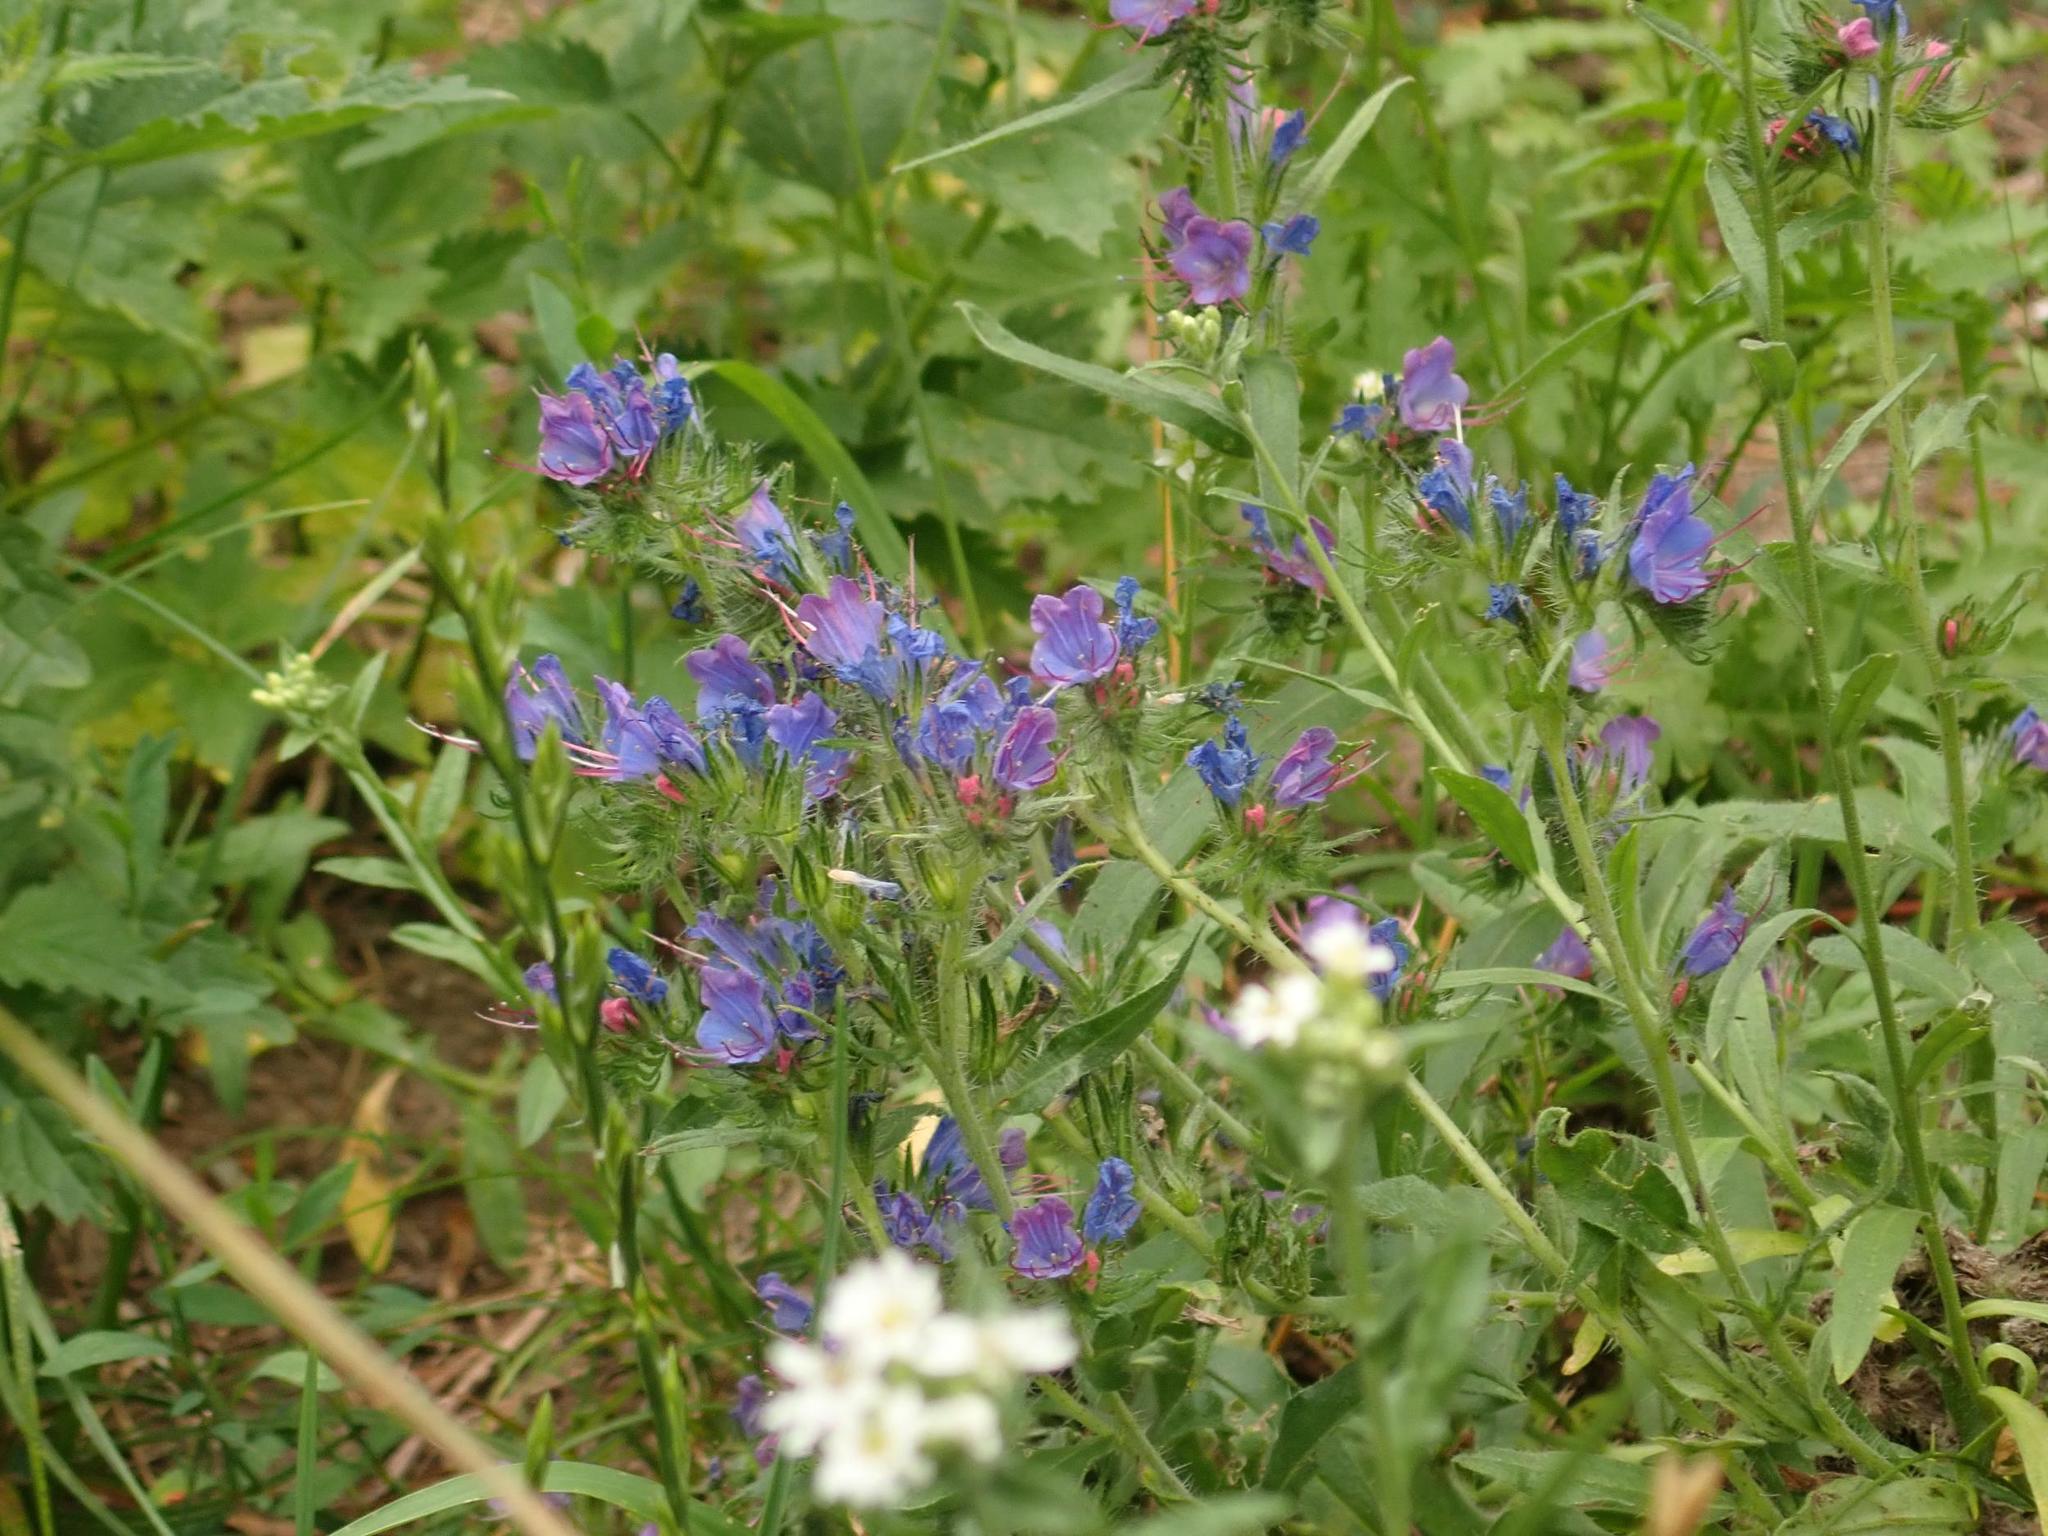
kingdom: Plantae
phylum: Tracheophyta
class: Magnoliopsida
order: Boraginales
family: Boraginaceae
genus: Echium
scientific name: Echium vulgare
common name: Common viper's bugloss
